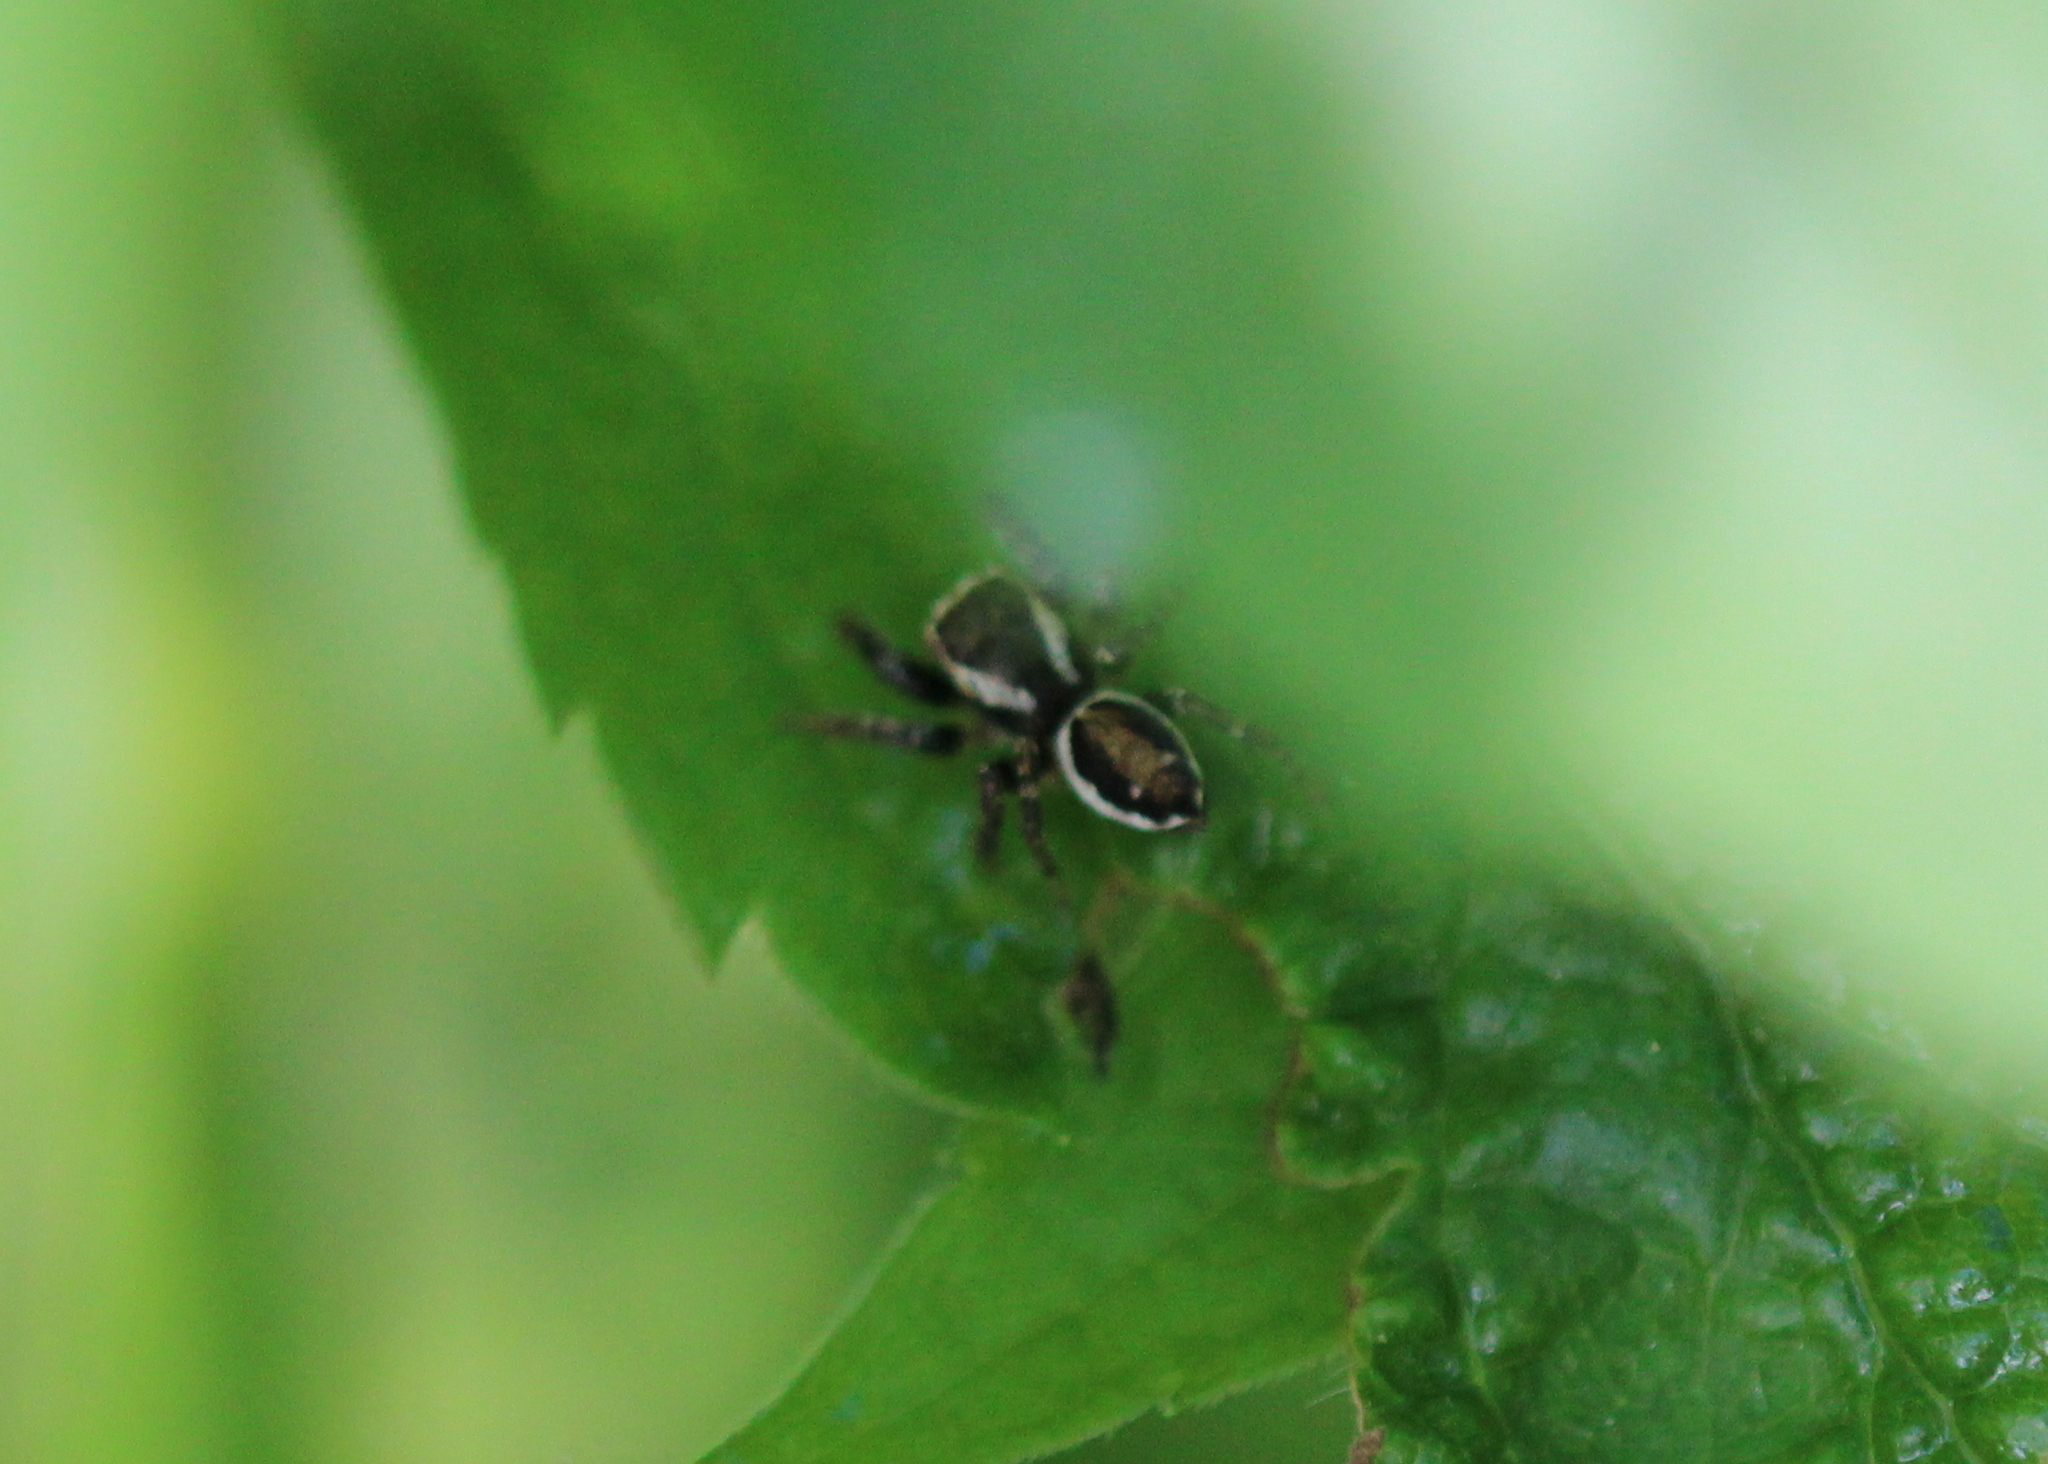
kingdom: Animalia
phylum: Arthropoda
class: Arachnida
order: Araneae
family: Salticidae
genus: Evarcha
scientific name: Evarcha hoyi
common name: Hoy's jumping spider
